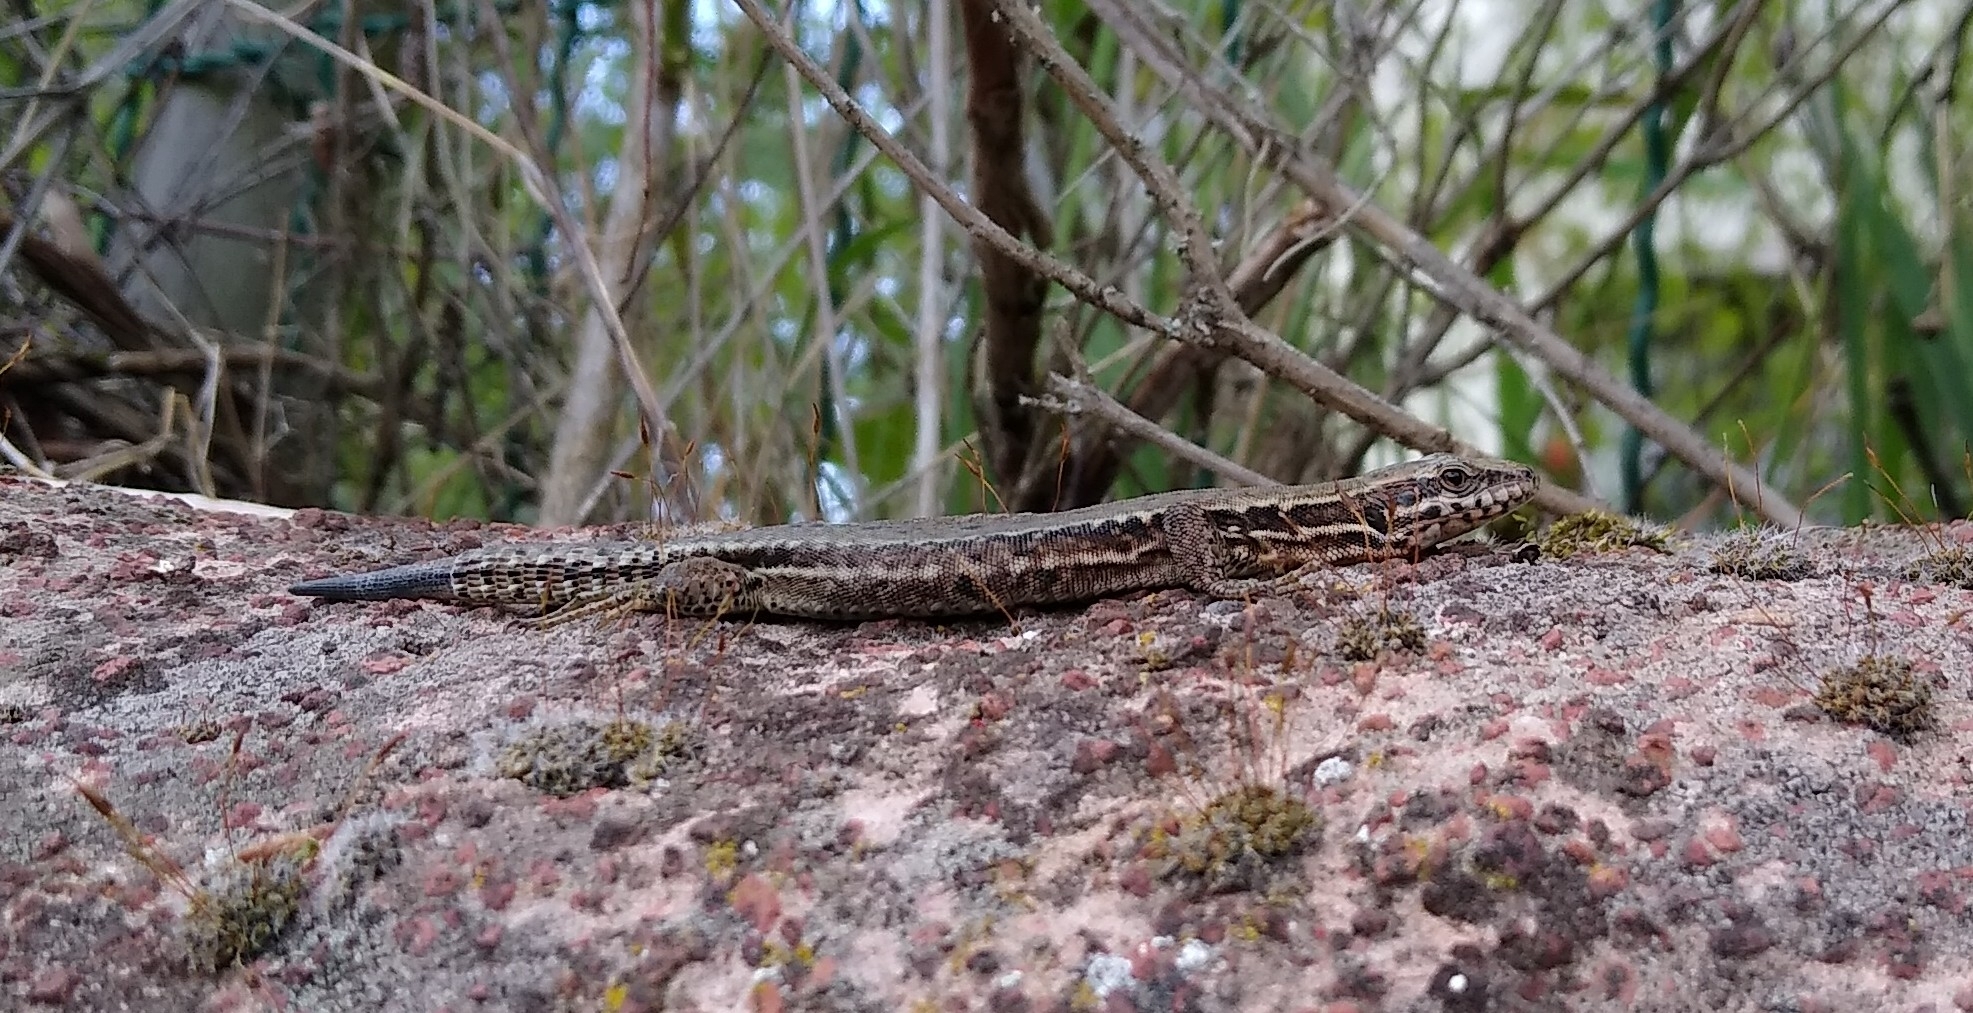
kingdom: Animalia
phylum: Chordata
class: Squamata
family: Lacertidae
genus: Podarcis
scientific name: Podarcis muralis
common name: Common wall lizard
